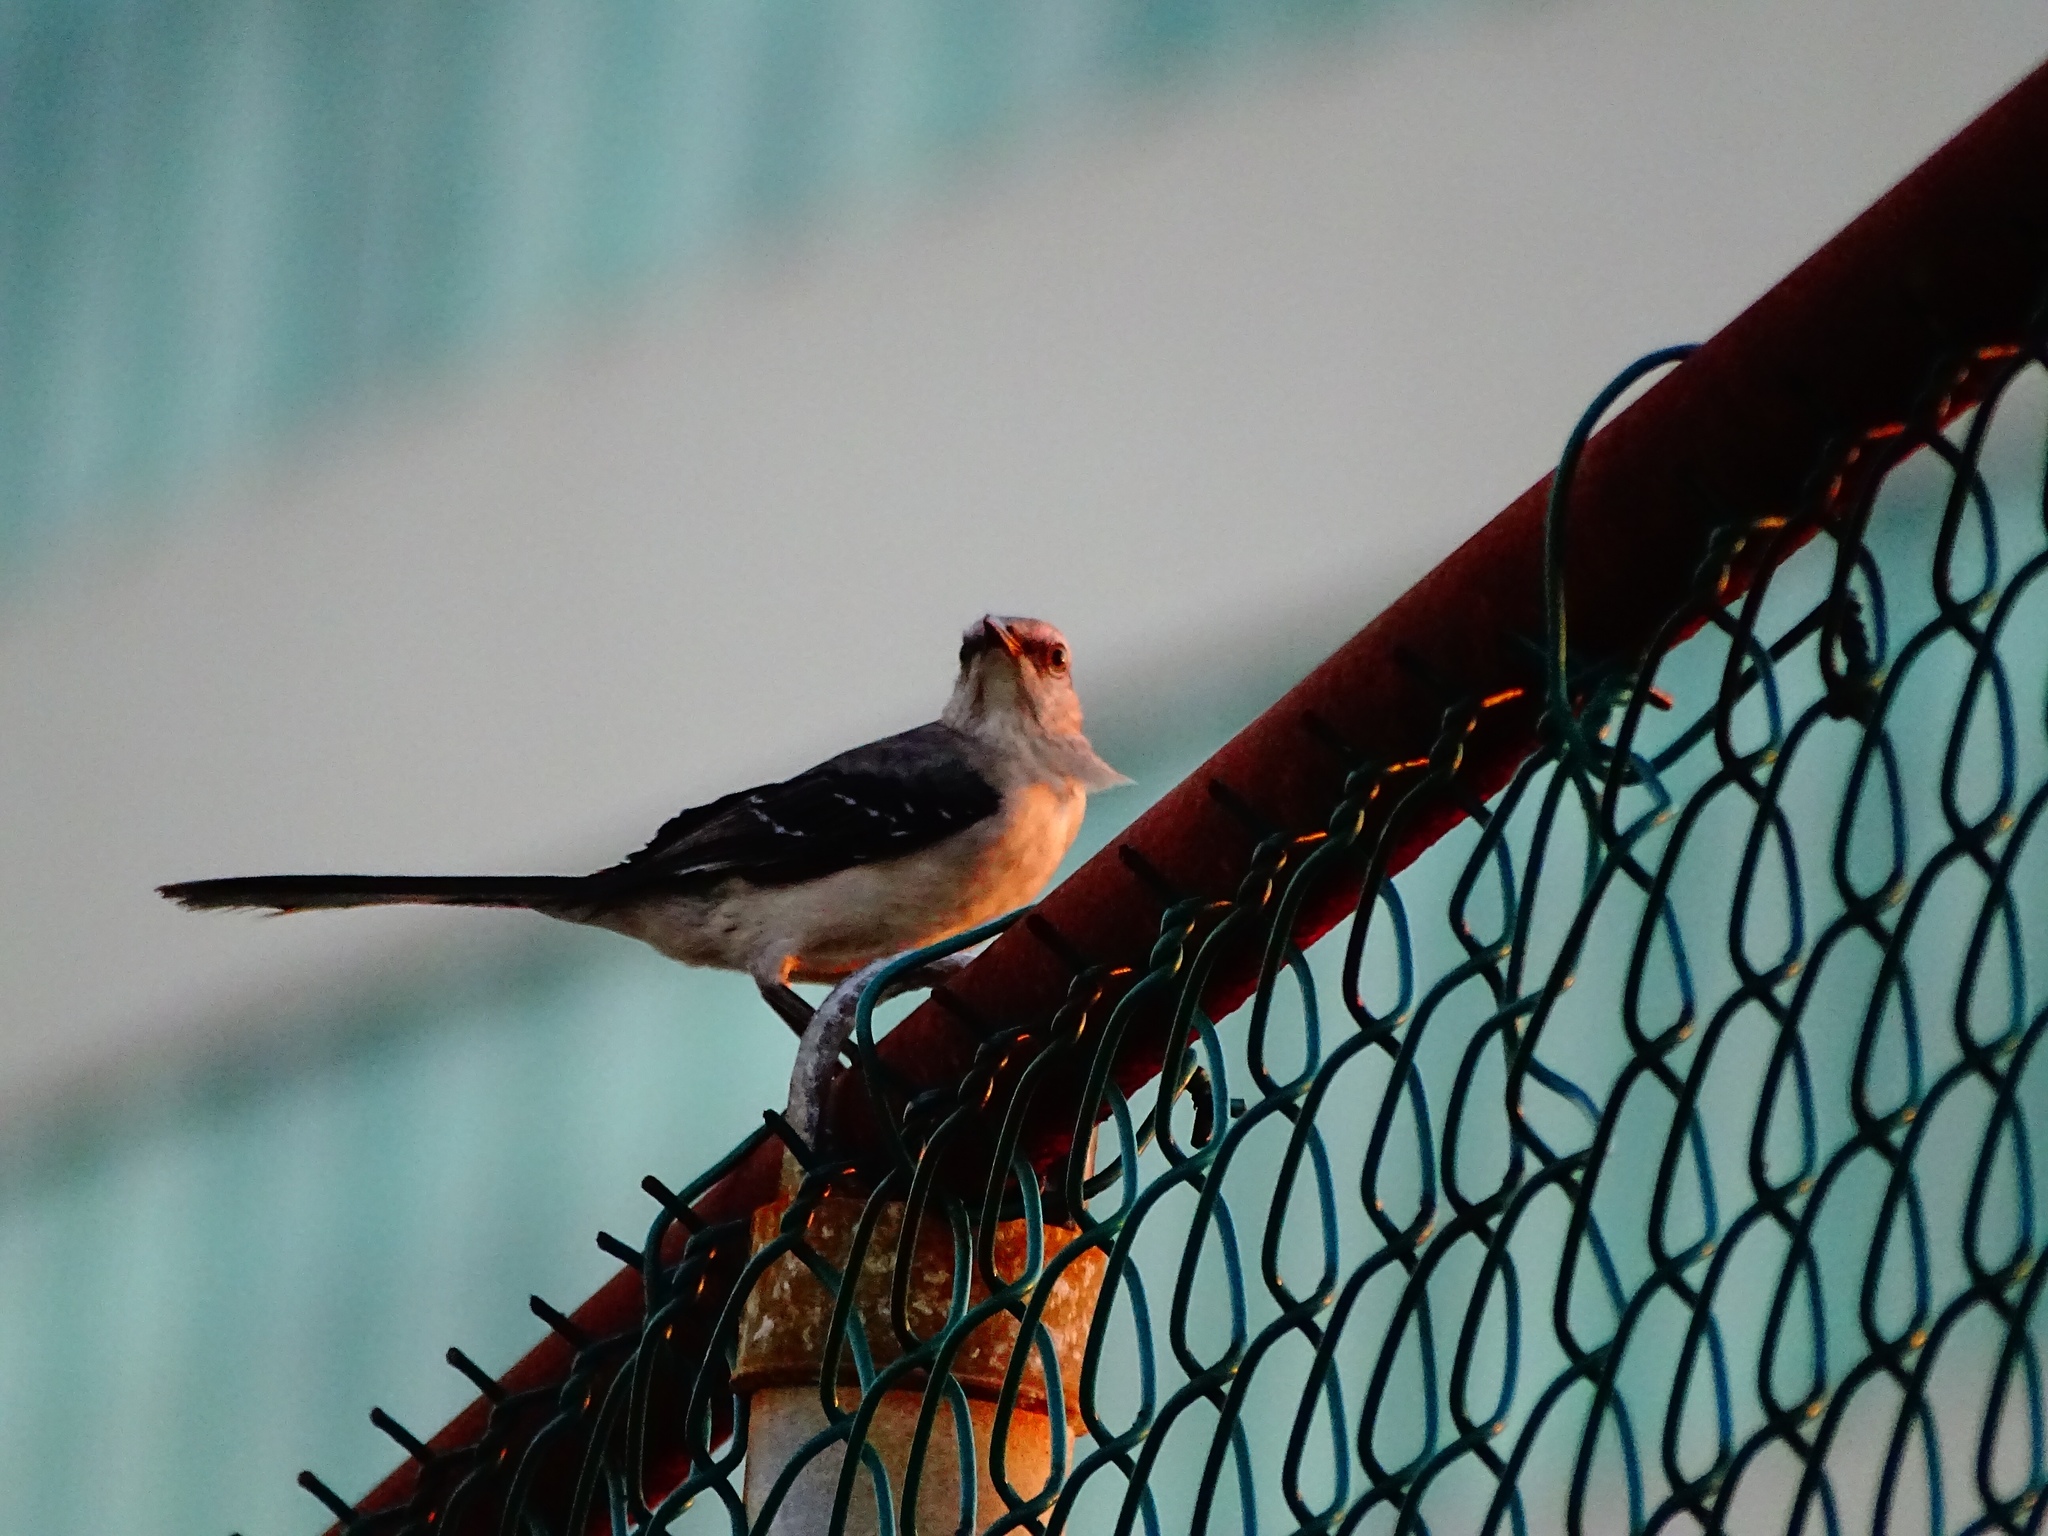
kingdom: Animalia
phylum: Chordata
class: Aves
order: Passeriformes
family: Mimidae
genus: Mimus
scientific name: Mimus gilvus
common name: Tropical mockingbird
